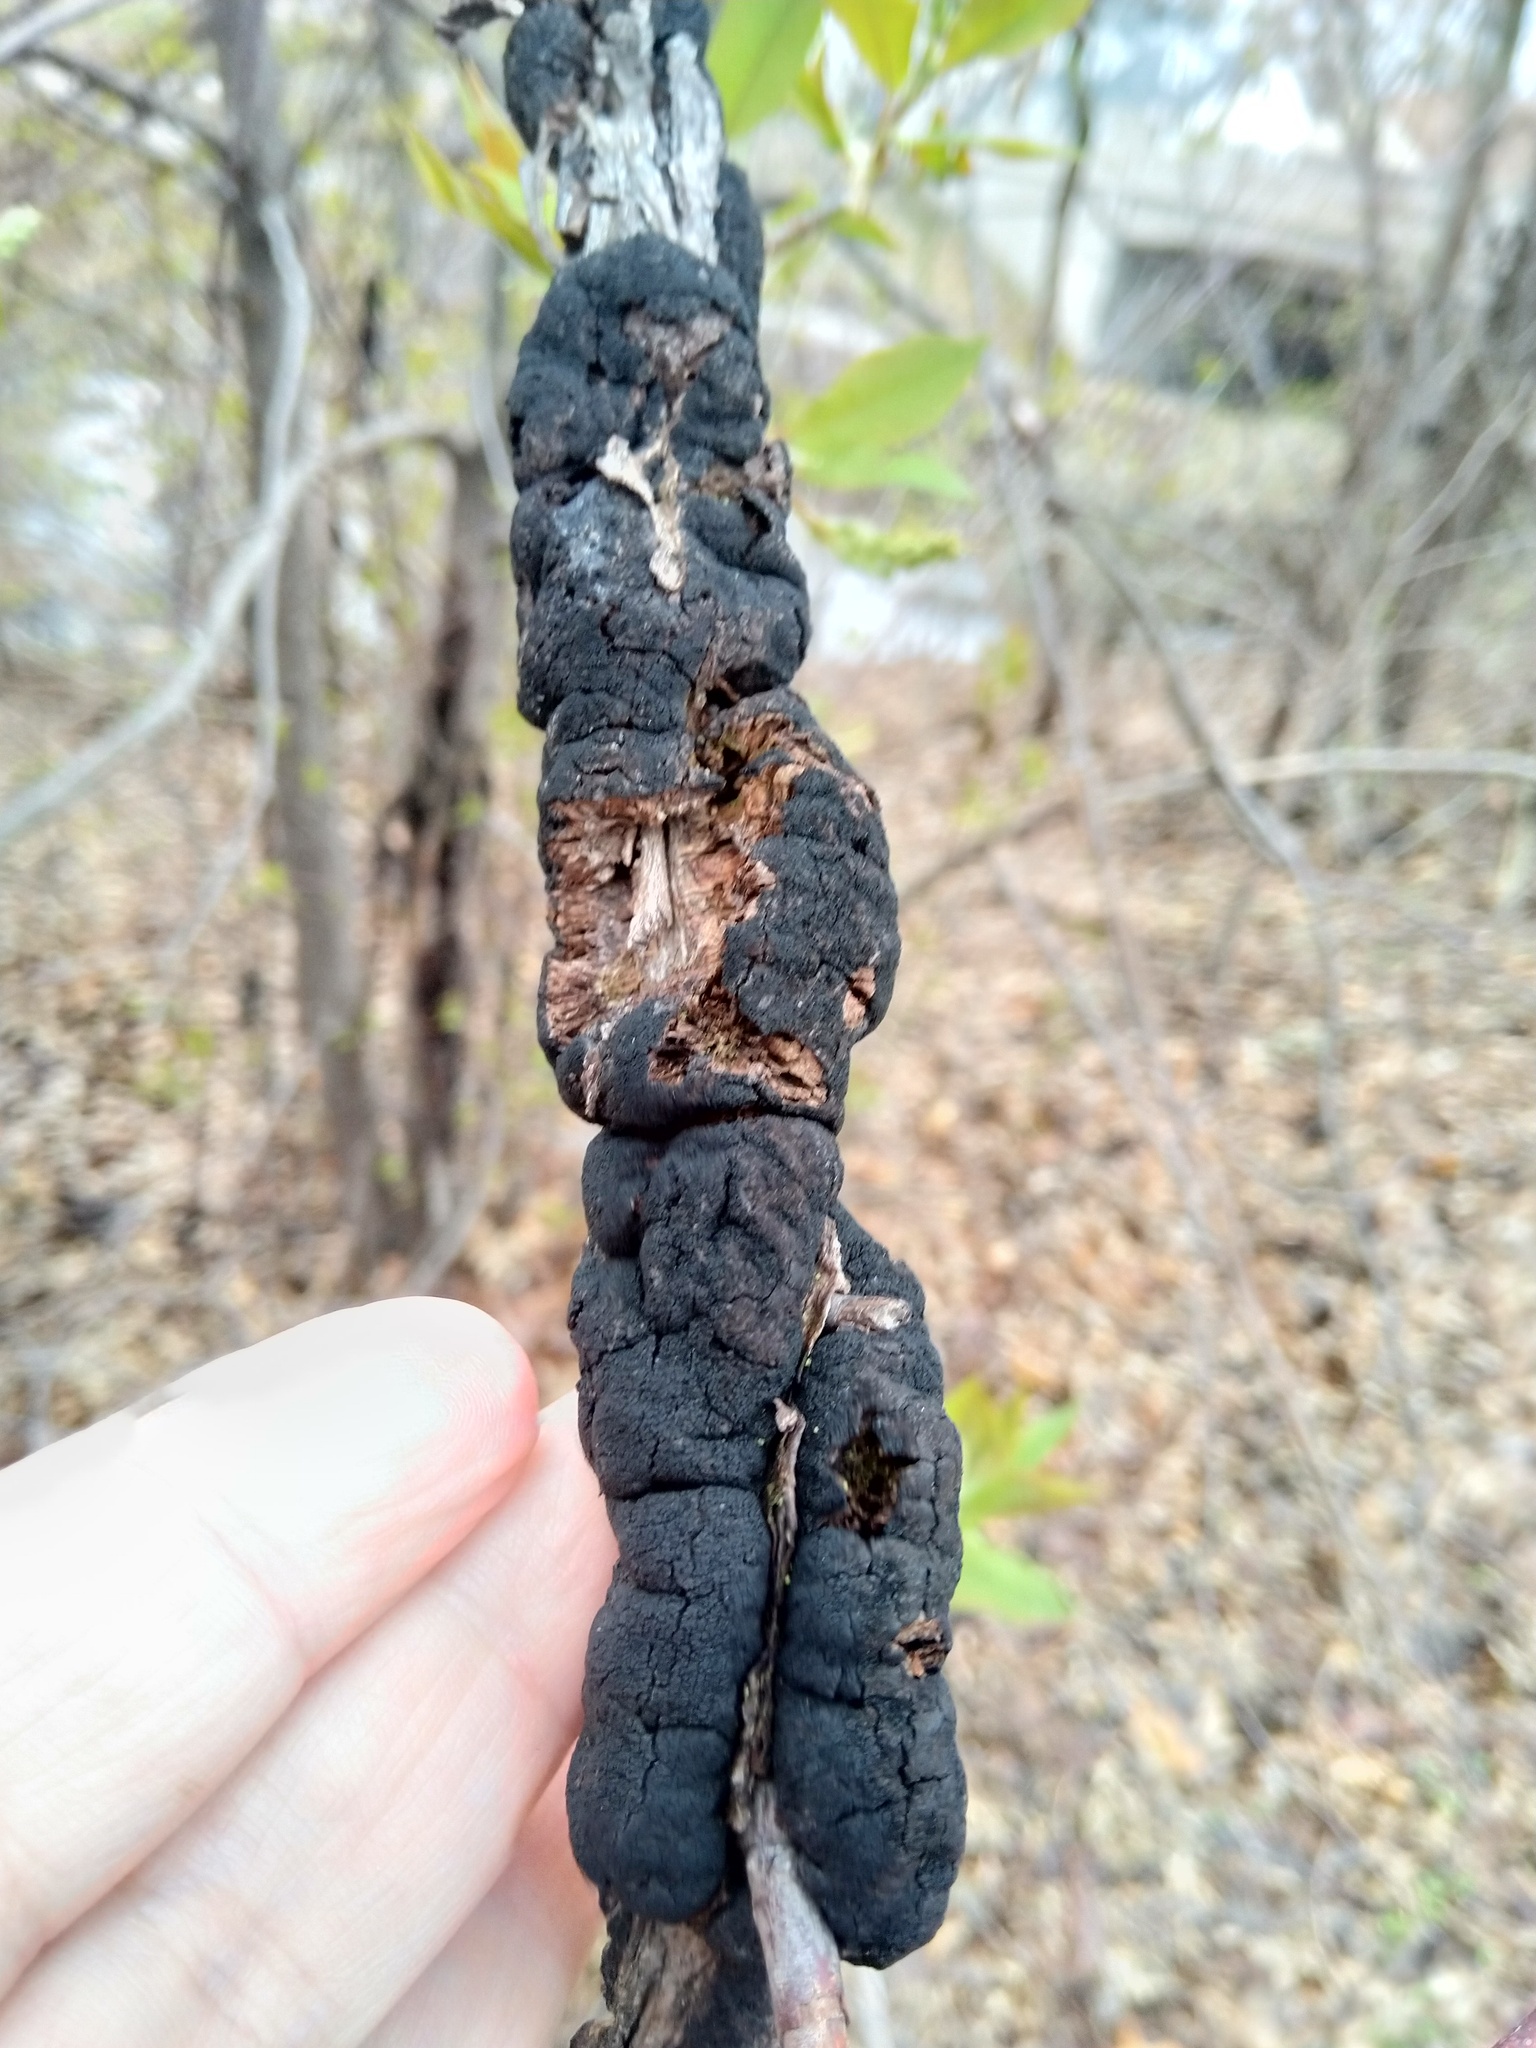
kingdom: Fungi
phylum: Ascomycota
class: Dothideomycetes
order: Venturiales
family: Venturiaceae
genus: Apiosporina
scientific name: Apiosporina morbosa
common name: Black knot
